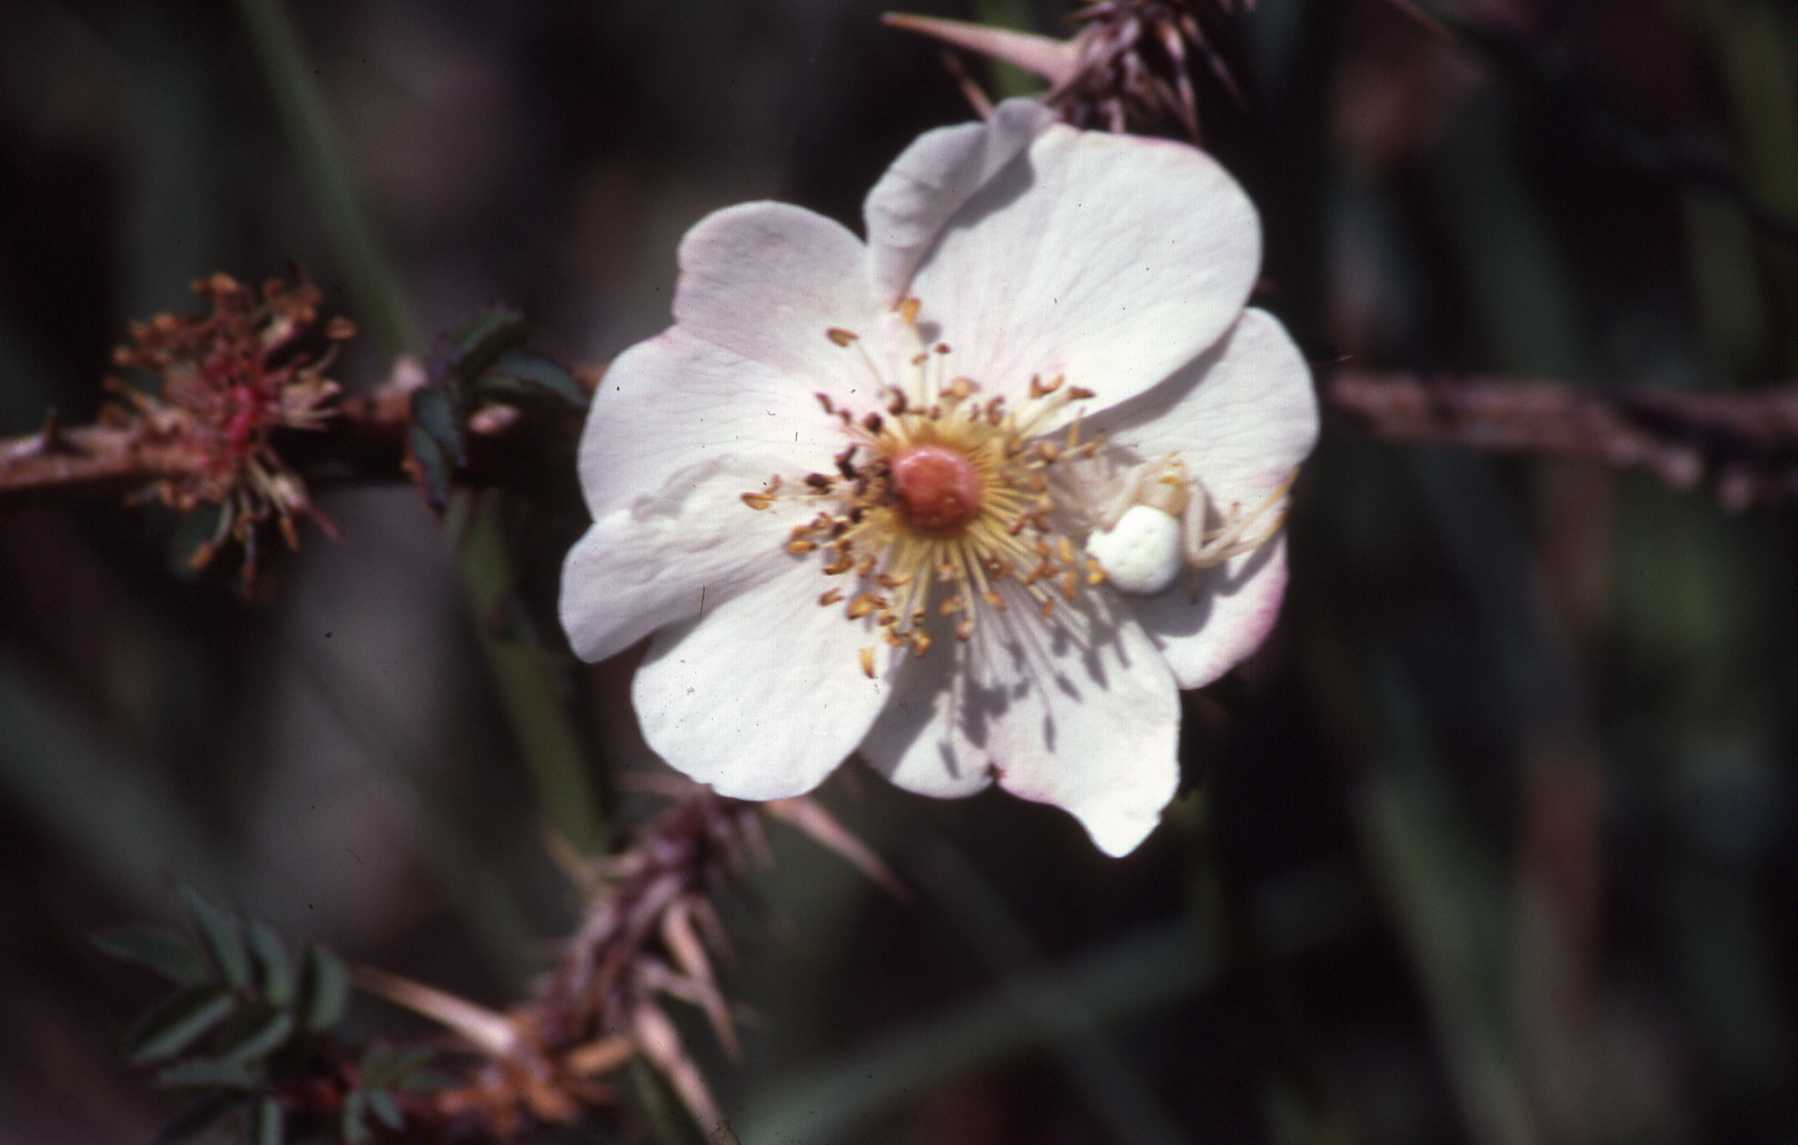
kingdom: Animalia
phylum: Arthropoda
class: Arachnida
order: Araneae
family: Thomisidae
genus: Misumena
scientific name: Misumena vatia
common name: Goldenrod crab spider
